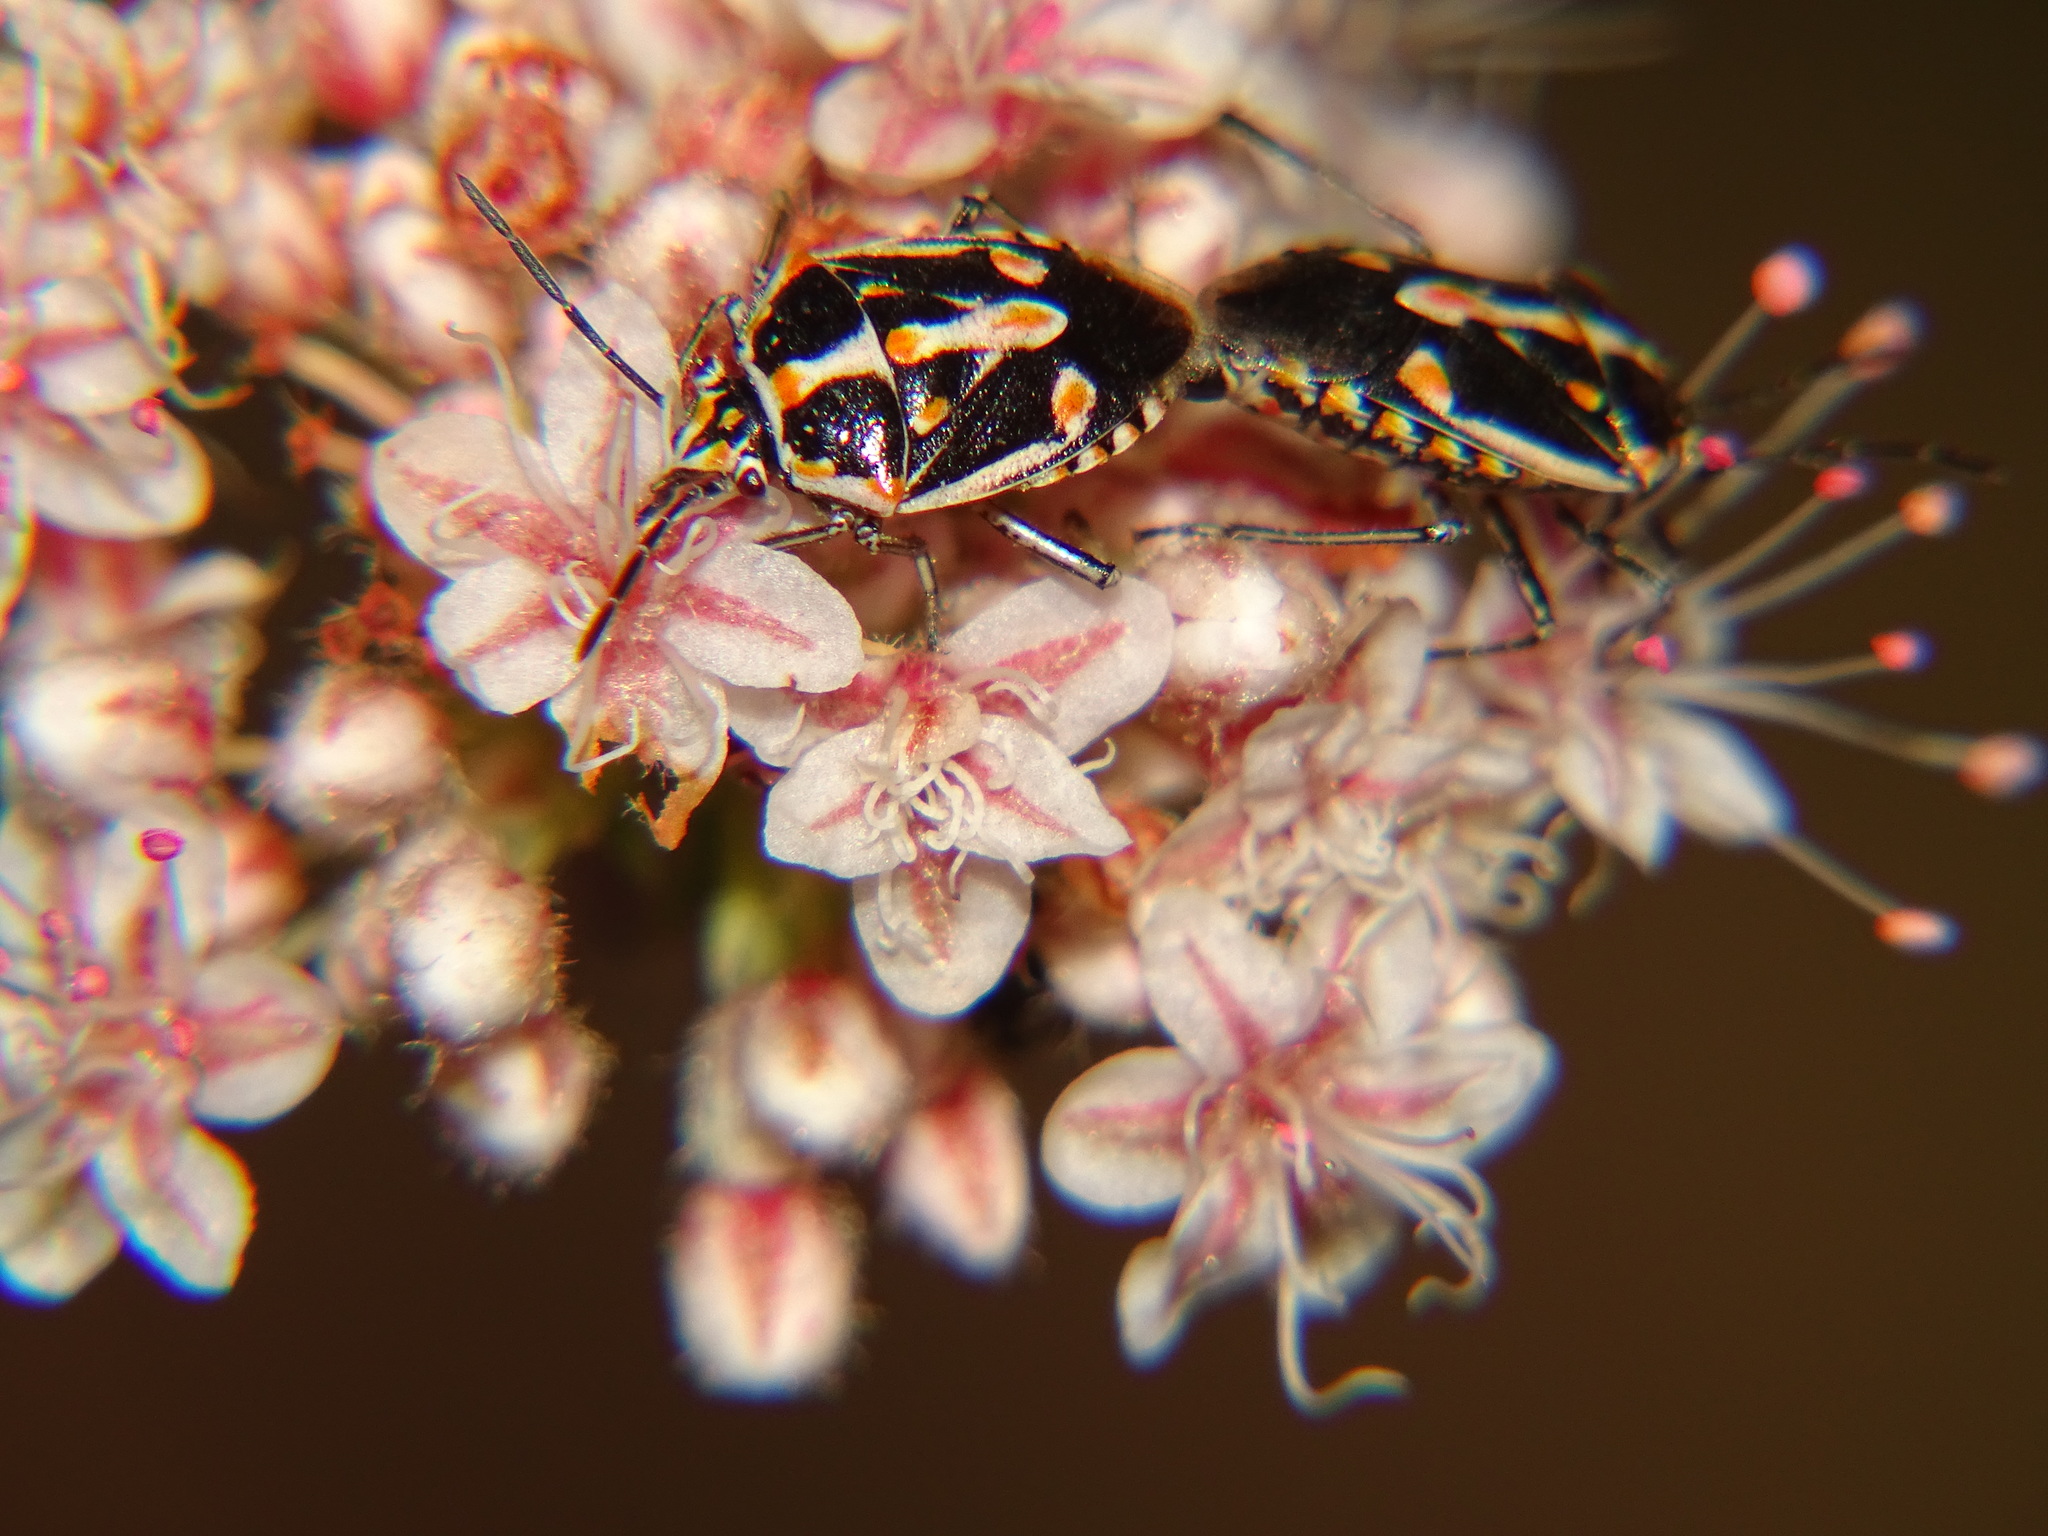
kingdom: Animalia
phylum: Arthropoda
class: Insecta
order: Hemiptera
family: Pentatomidae
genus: Bagrada
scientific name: Bagrada hilaris
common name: Bagrada bug
